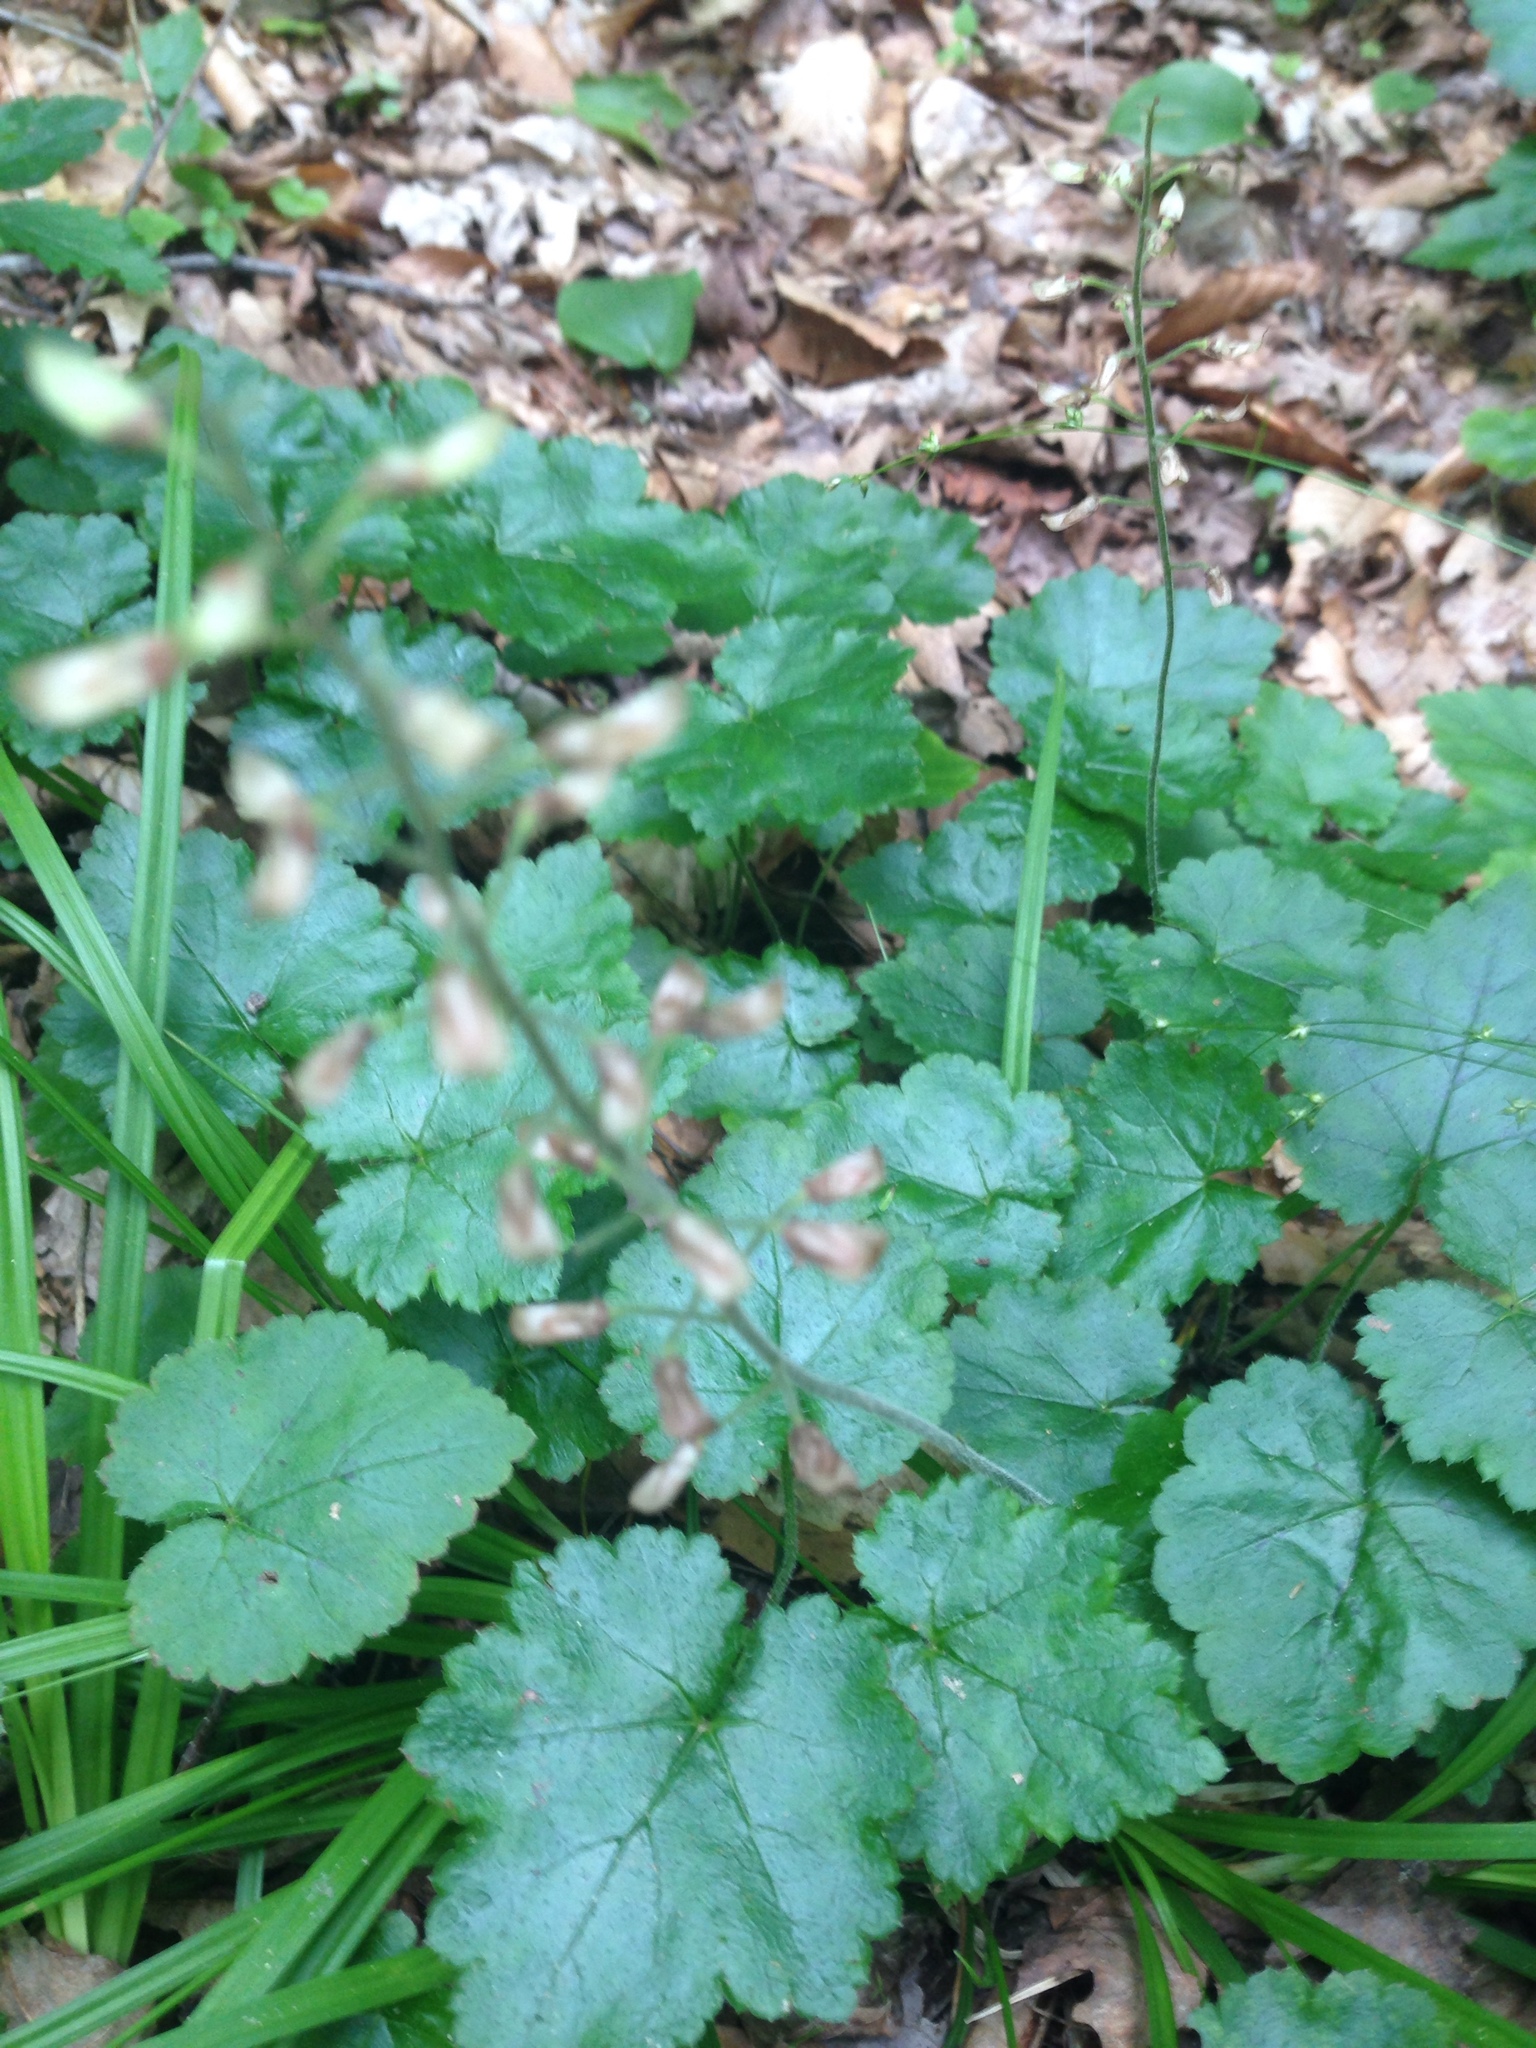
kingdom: Plantae
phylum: Tracheophyta
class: Magnoliopsida
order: Saxifragales
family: Saxifragaceae
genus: Tiarella
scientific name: Tiarella stolonifera
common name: Stoloniferous foamflower
